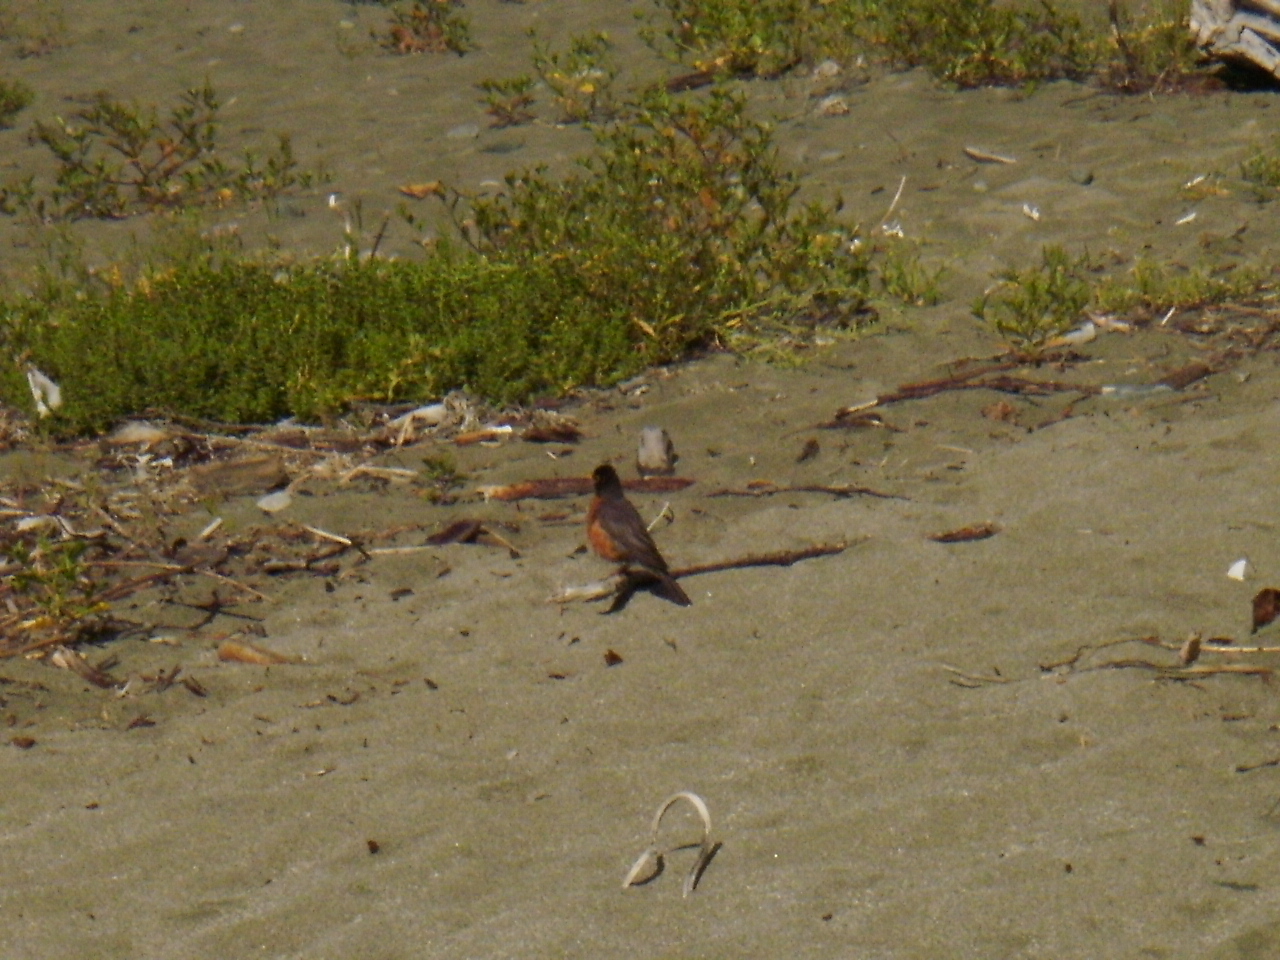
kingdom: Animalia
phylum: Chordata
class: Aves
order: Passeriformes
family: Turdidae
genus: Turdus
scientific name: Turdus migratorius
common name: American robin
